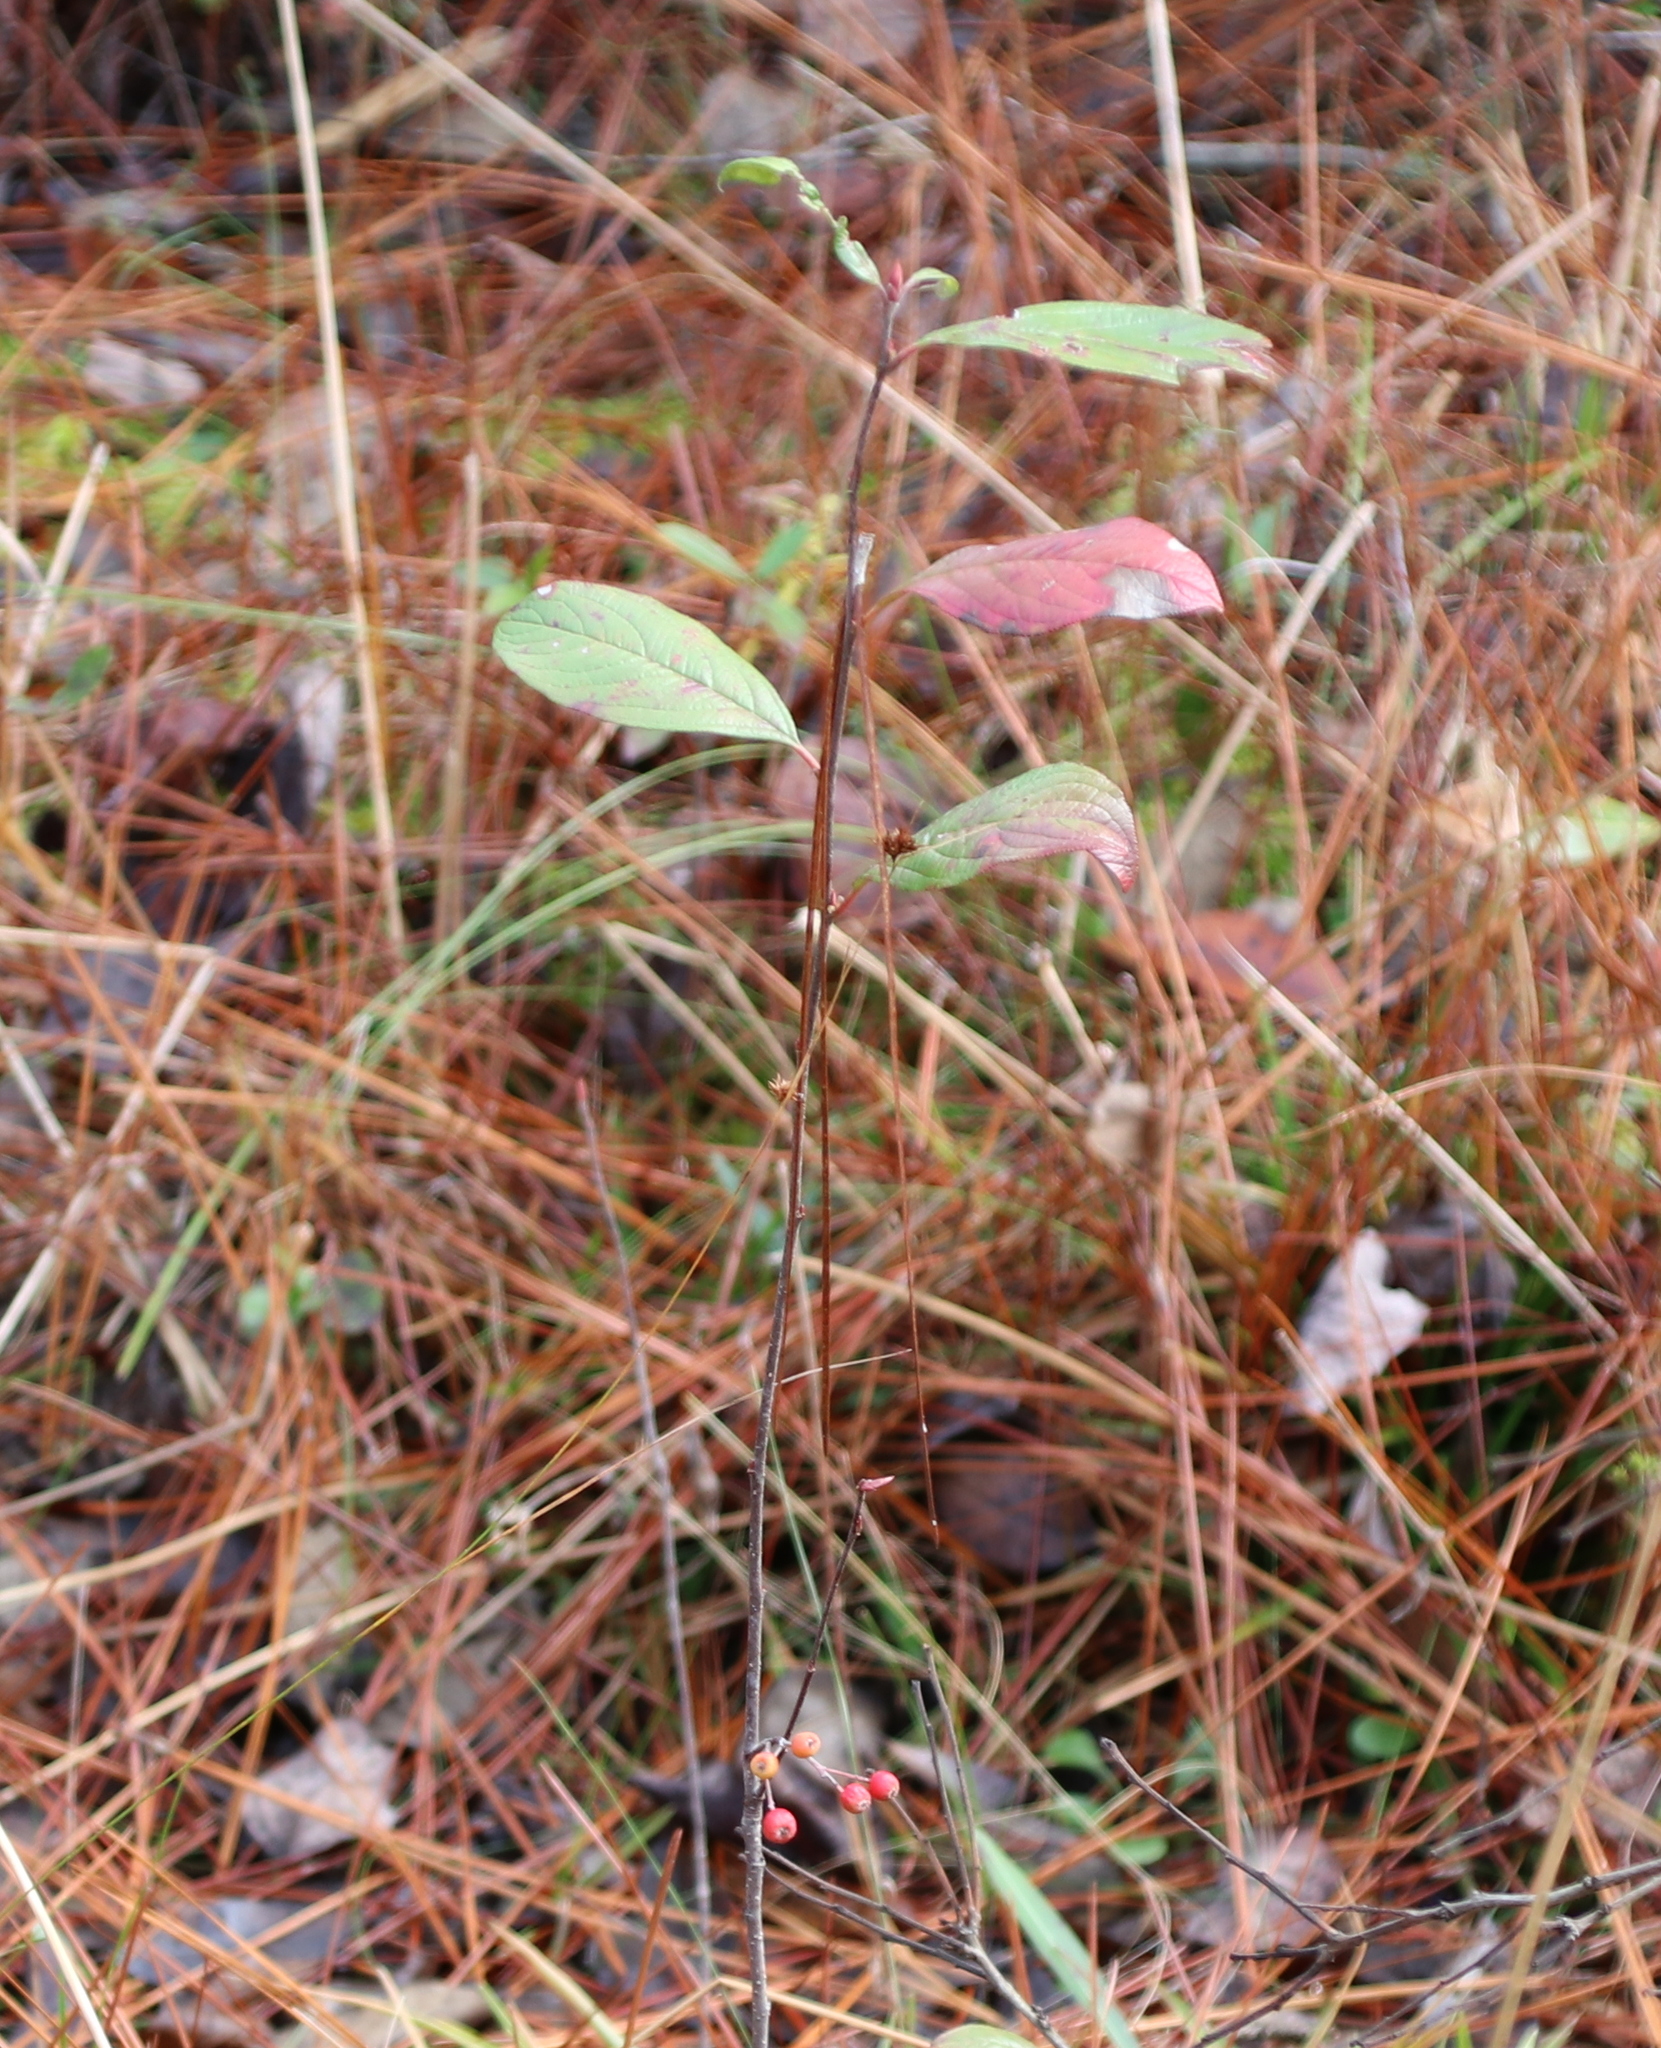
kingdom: Plantae
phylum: Tracheophyta
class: Magnoliopsida
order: Rosales
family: Rosaceae
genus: Aronia
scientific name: Aronia arbutifolia
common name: Red chokeberry
